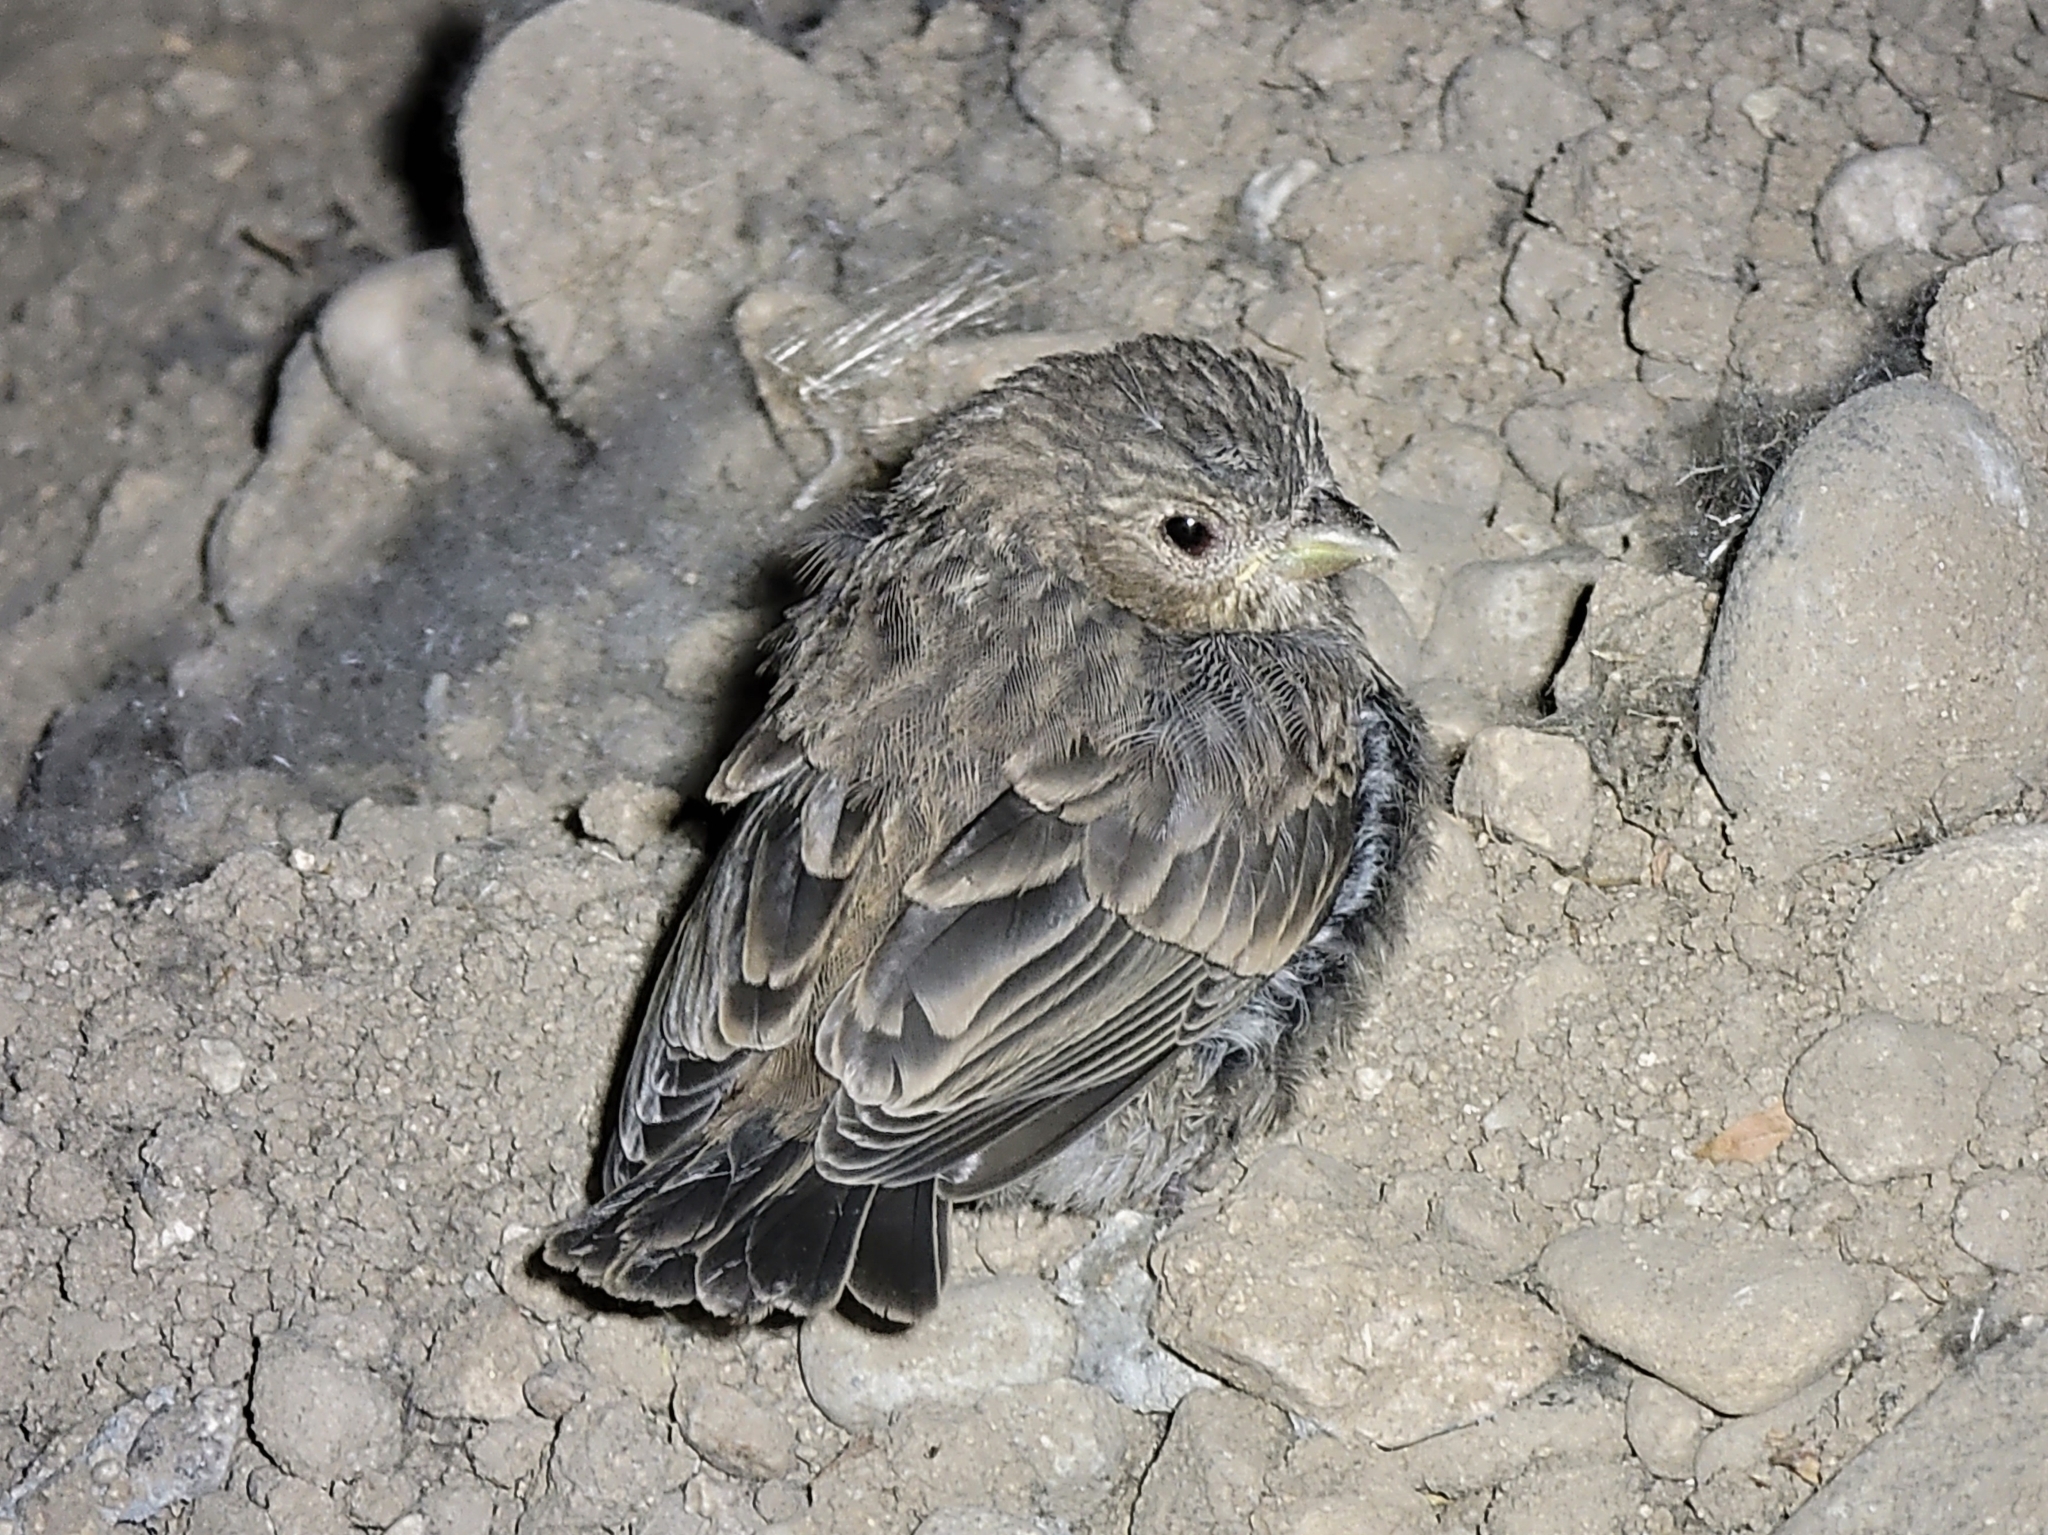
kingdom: Animalia
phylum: Chordata
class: Aves
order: Passeriformes
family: Fringillidae
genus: Haemorhous
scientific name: Haemorhous mexicanus
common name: House finch
